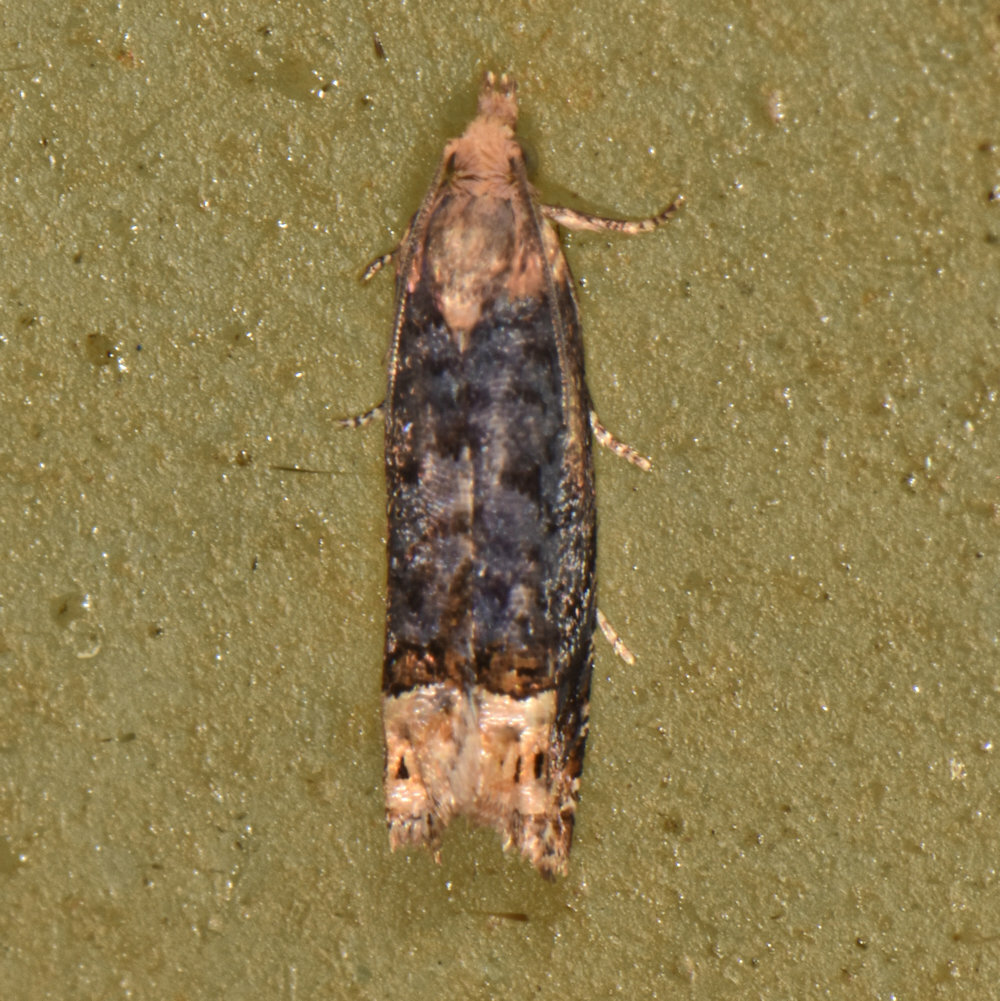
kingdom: Animalia
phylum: Arthropoda
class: Insecta
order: Lepidoptera
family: Tortricidae
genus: Eucosma
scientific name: Eucosma ochroterminana
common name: Buff-tipped eucosma moth
